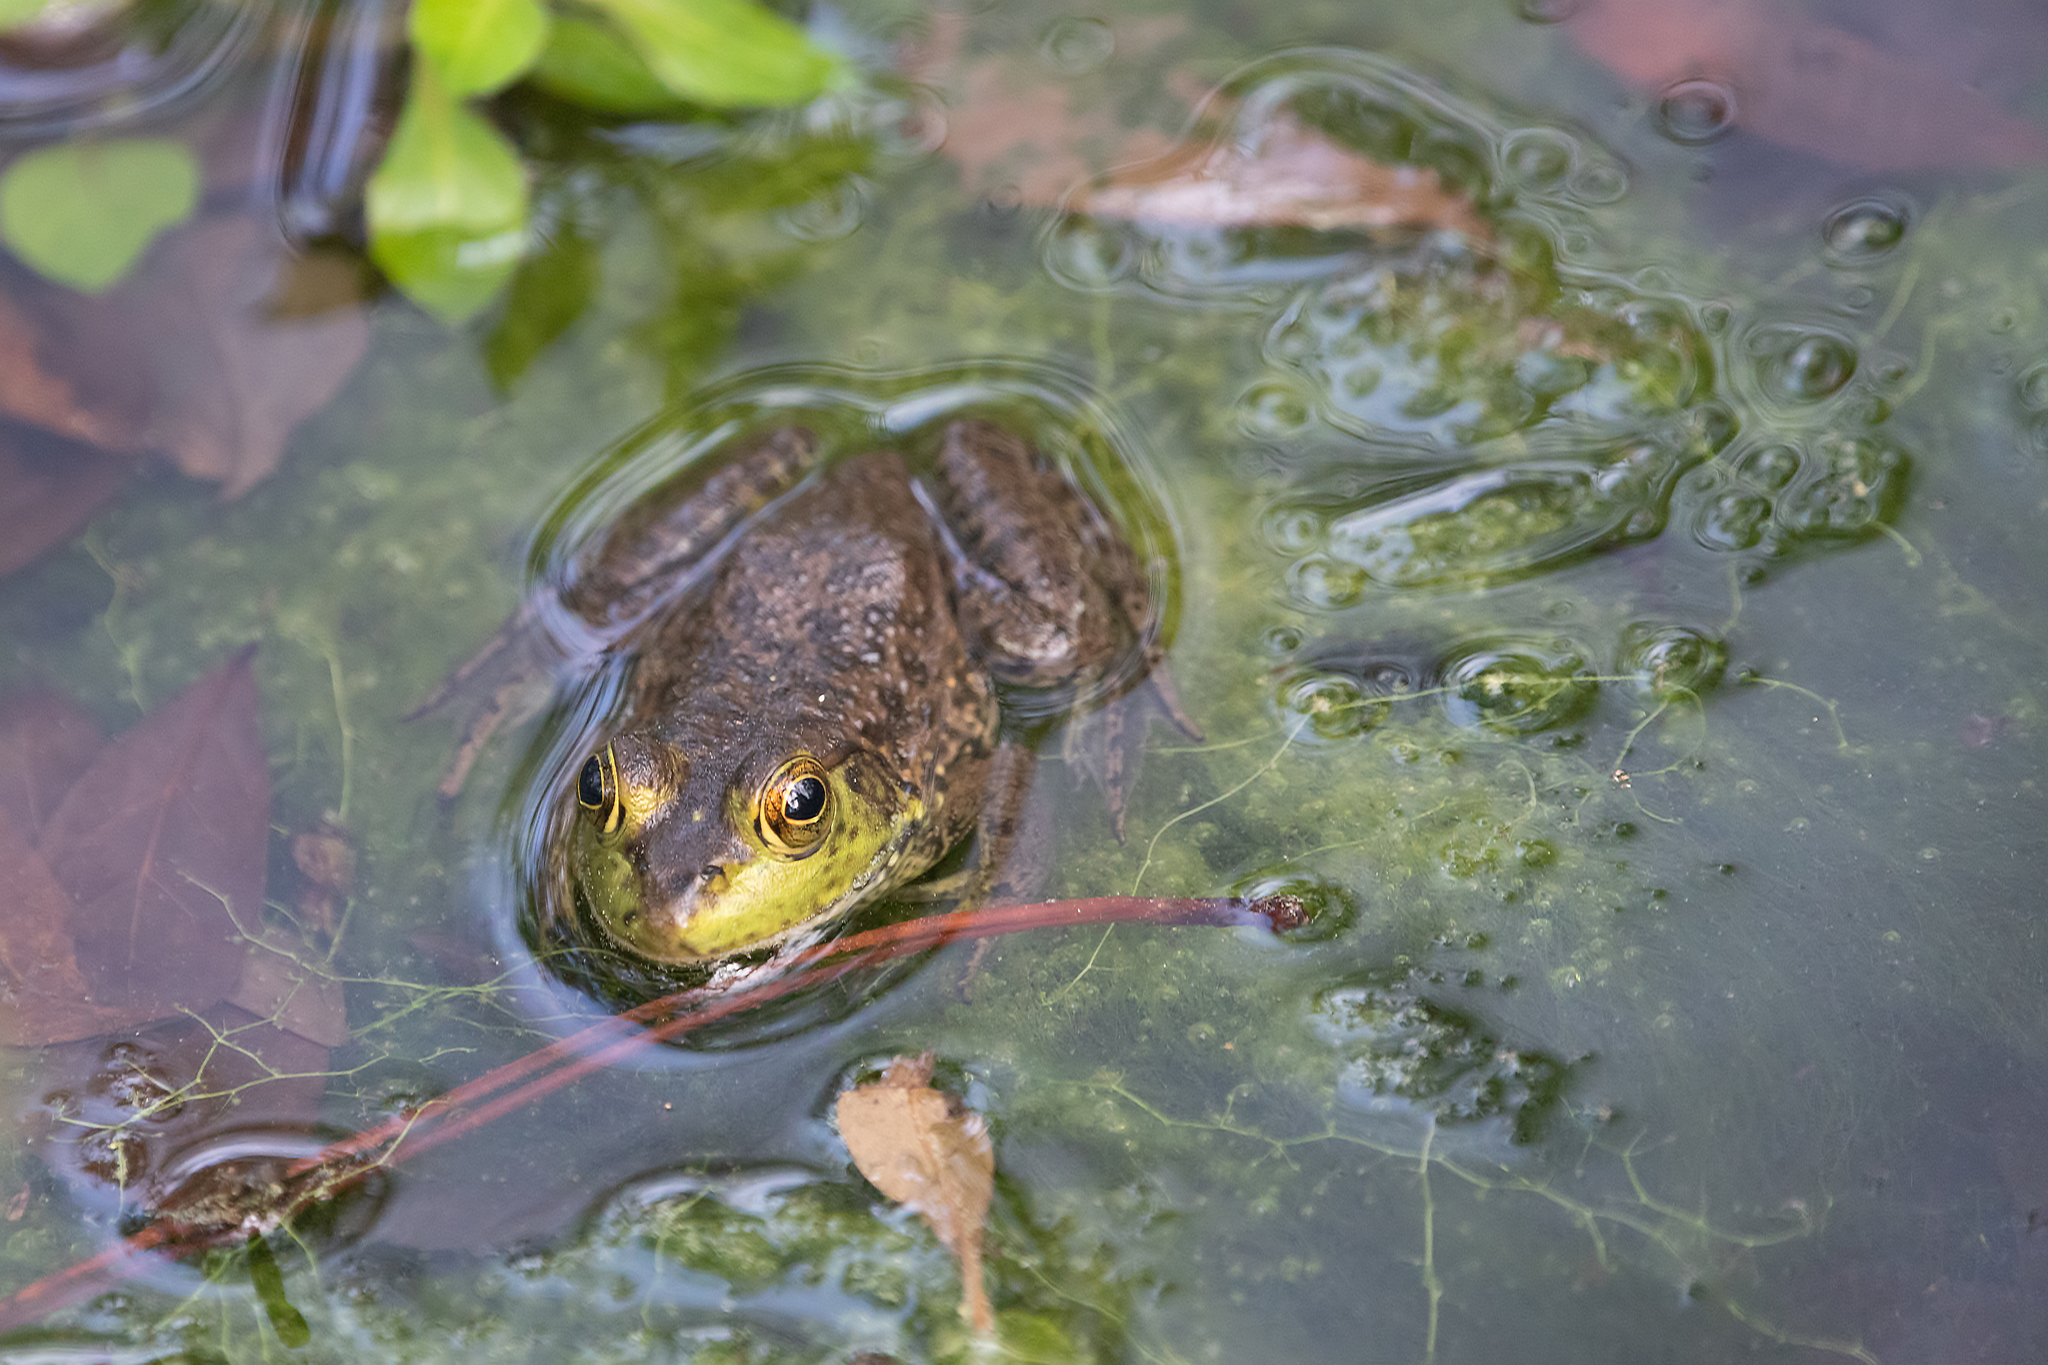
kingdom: Animalia
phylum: Chordata
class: Amphibia
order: Anura
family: Ranidae
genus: Lithobates
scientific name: Lithobates catesbeianus
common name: American bullfrog
